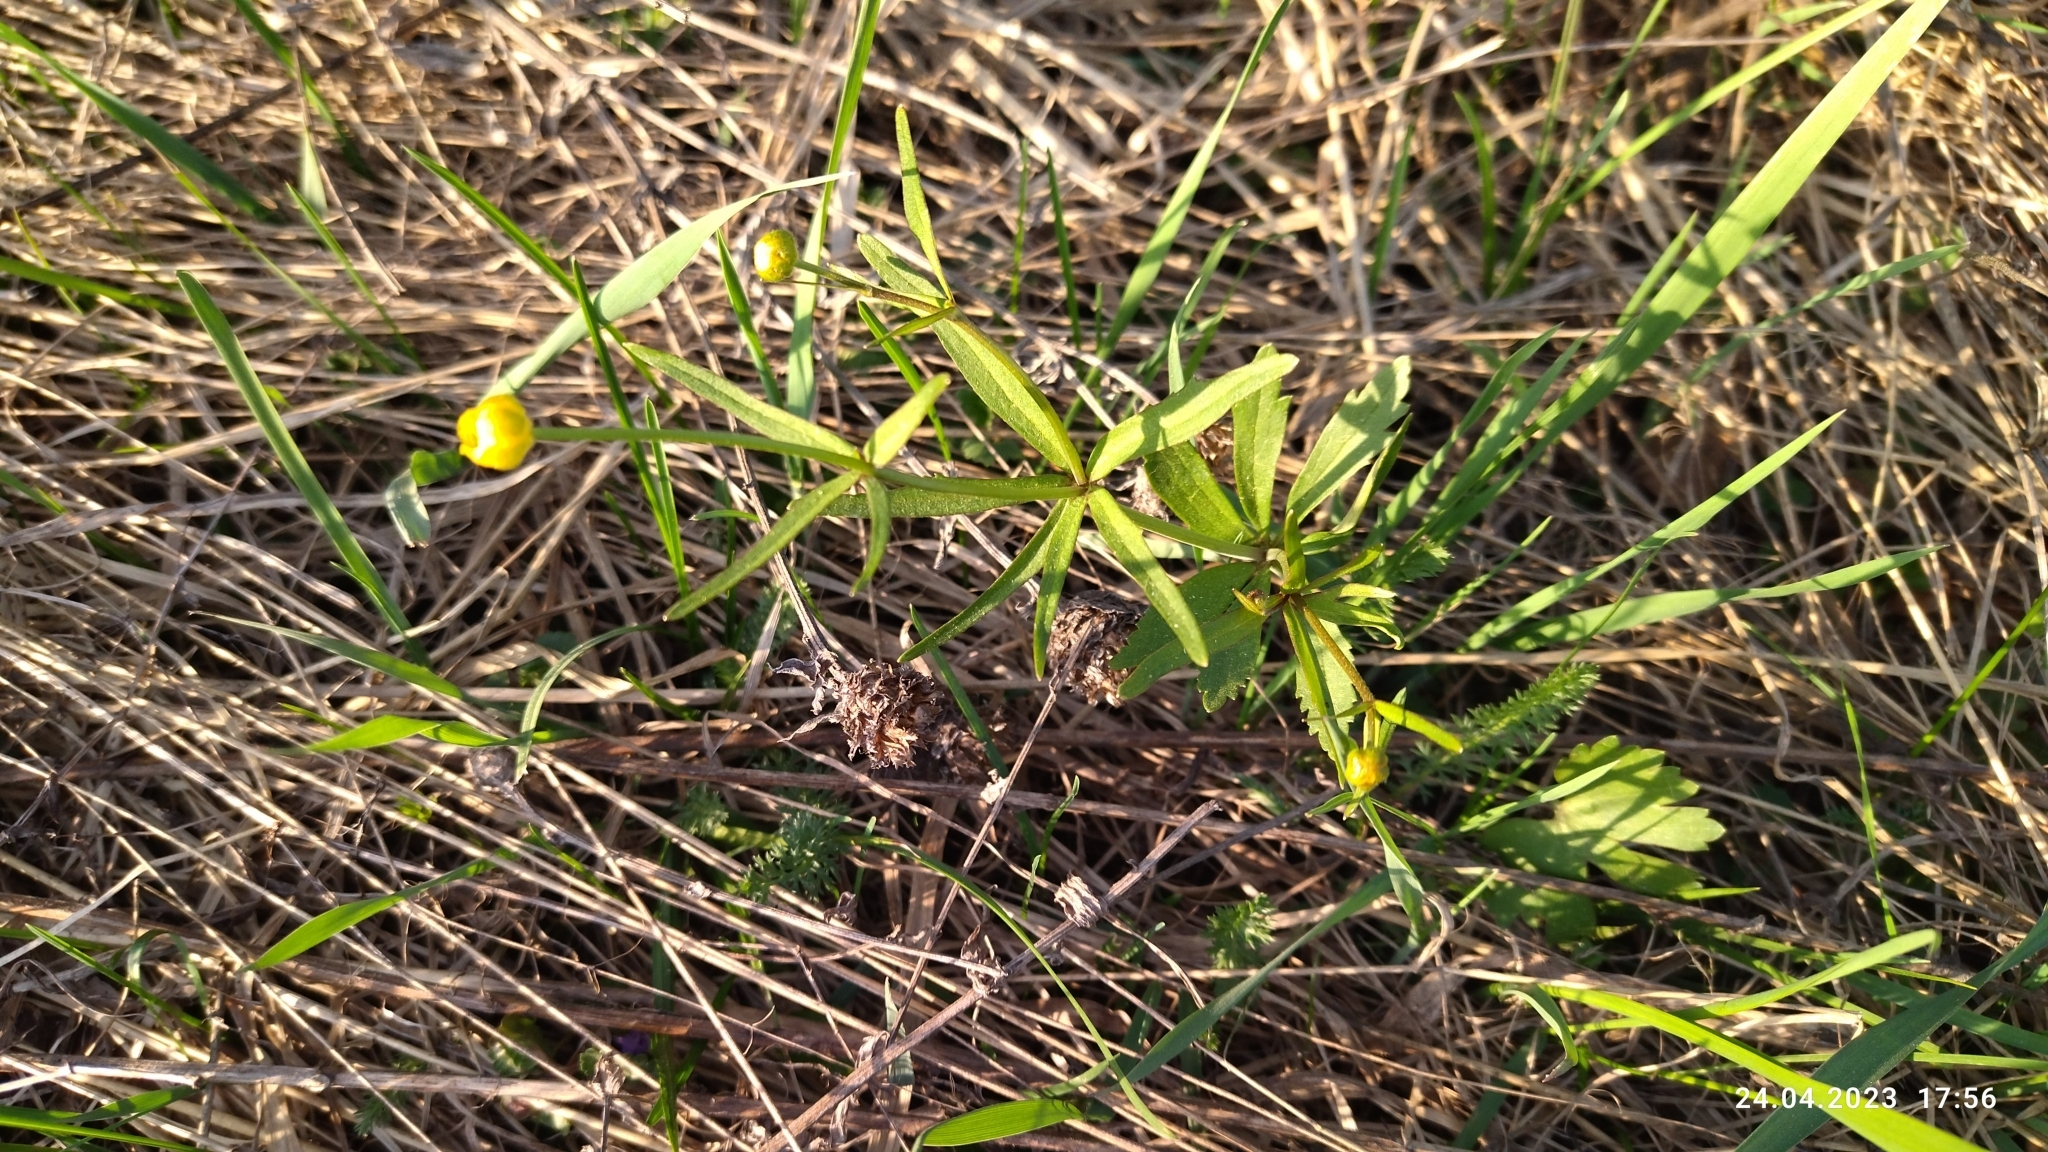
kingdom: Plantae
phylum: Tracheophyta
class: Magnoliopsida
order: Ranunculales
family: Ranunculaceae
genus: Ranunculus
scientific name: Ranunculus auricomus
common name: Goldilocks buttercup
